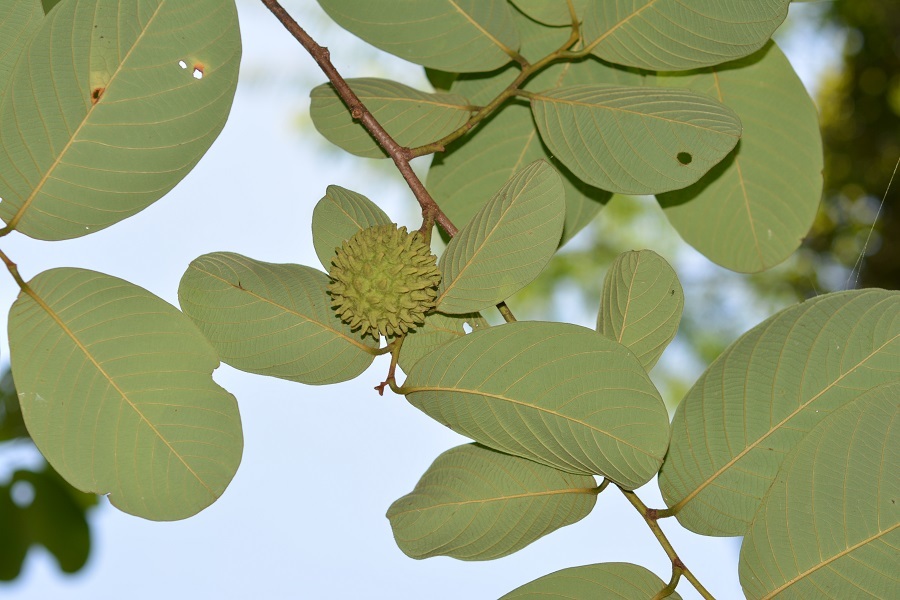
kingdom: Plantae
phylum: Tracheophyta
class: Magnoliopsida
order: Magnoliales
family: Annonaceae
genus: Annona
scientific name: Annona holosericea
